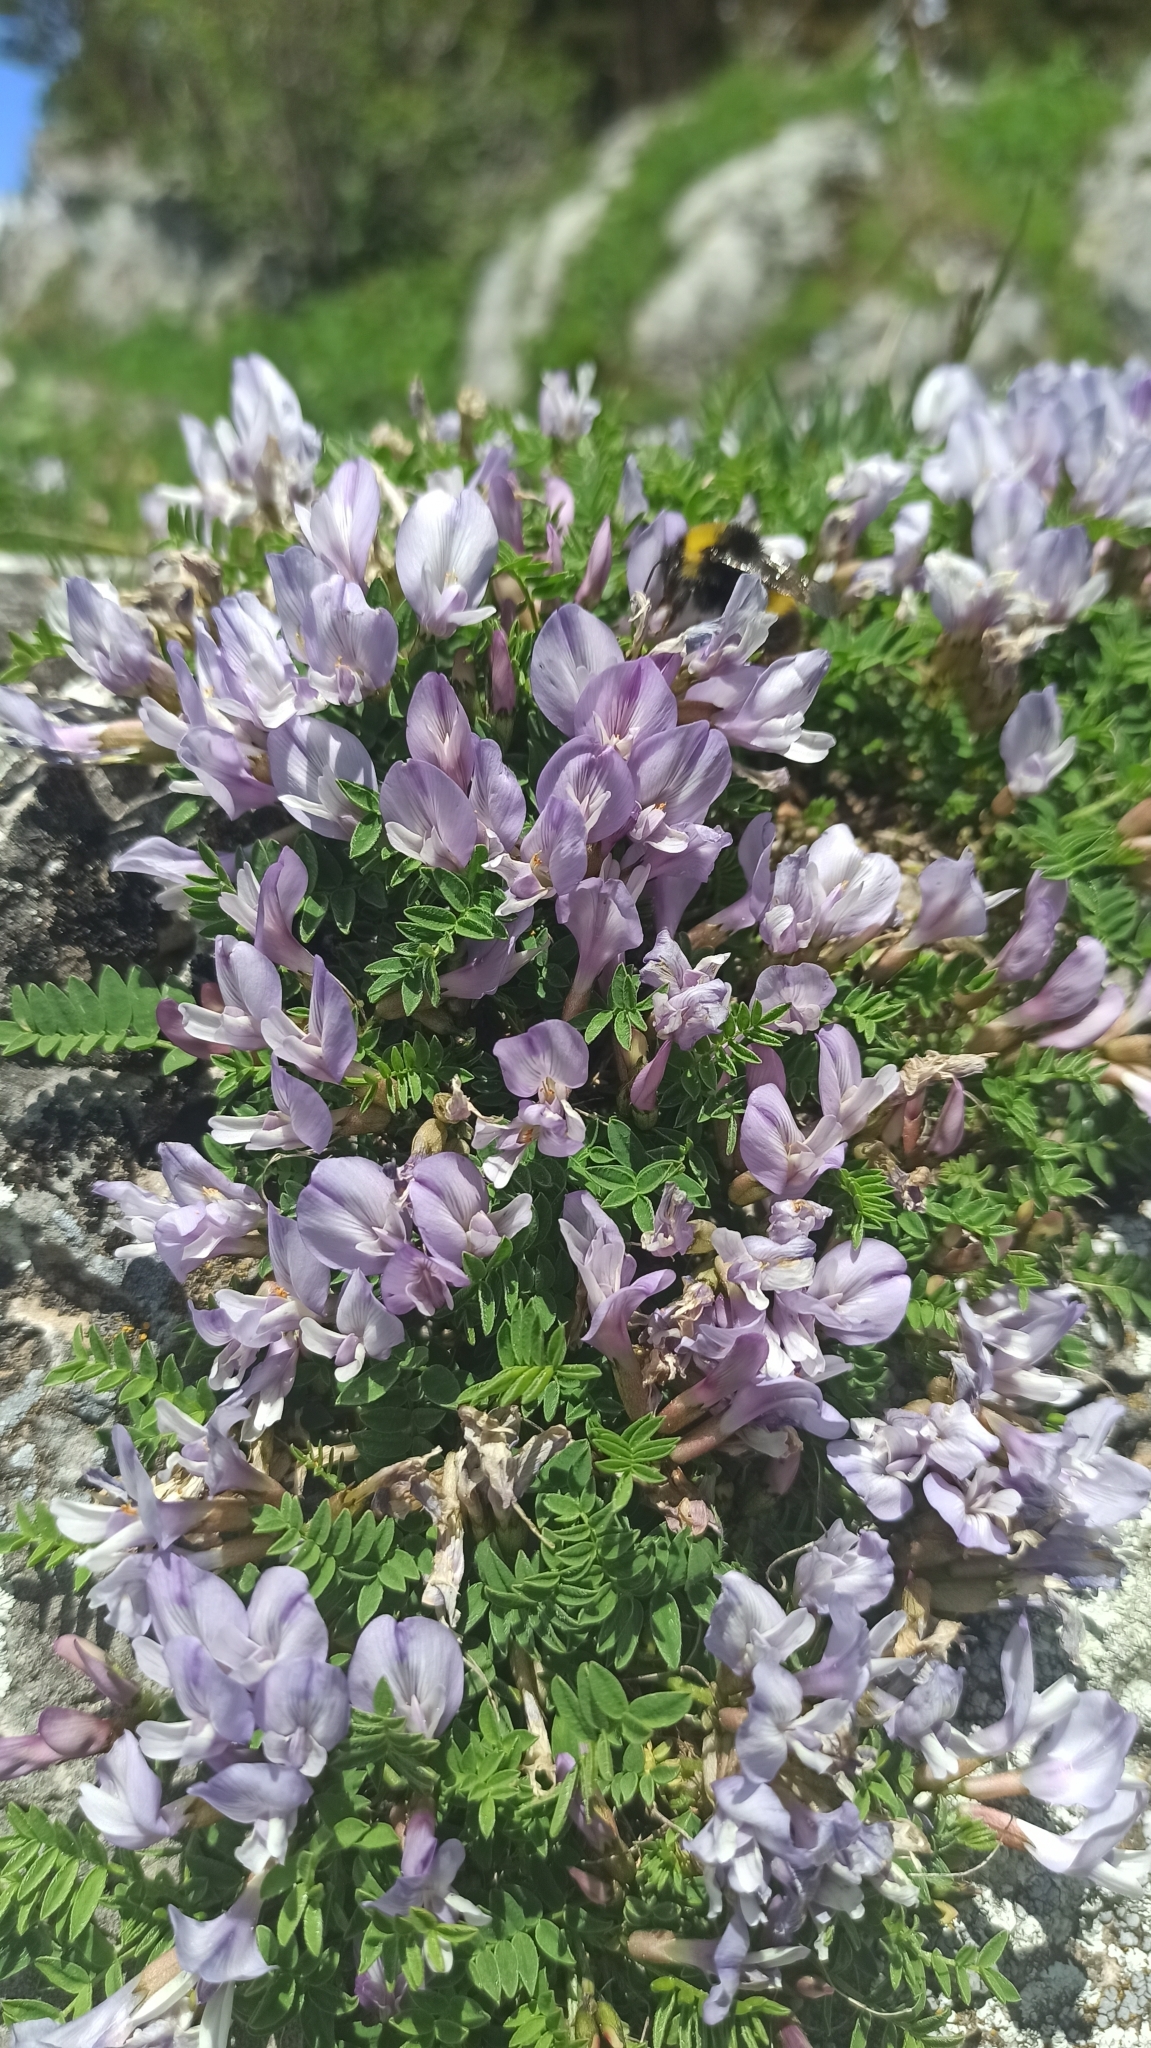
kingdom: Plantae
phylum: Tracheophyta
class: Magnoliopsida
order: Fabales
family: Fabaceae
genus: Astragalus
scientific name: Astragalus levieri
